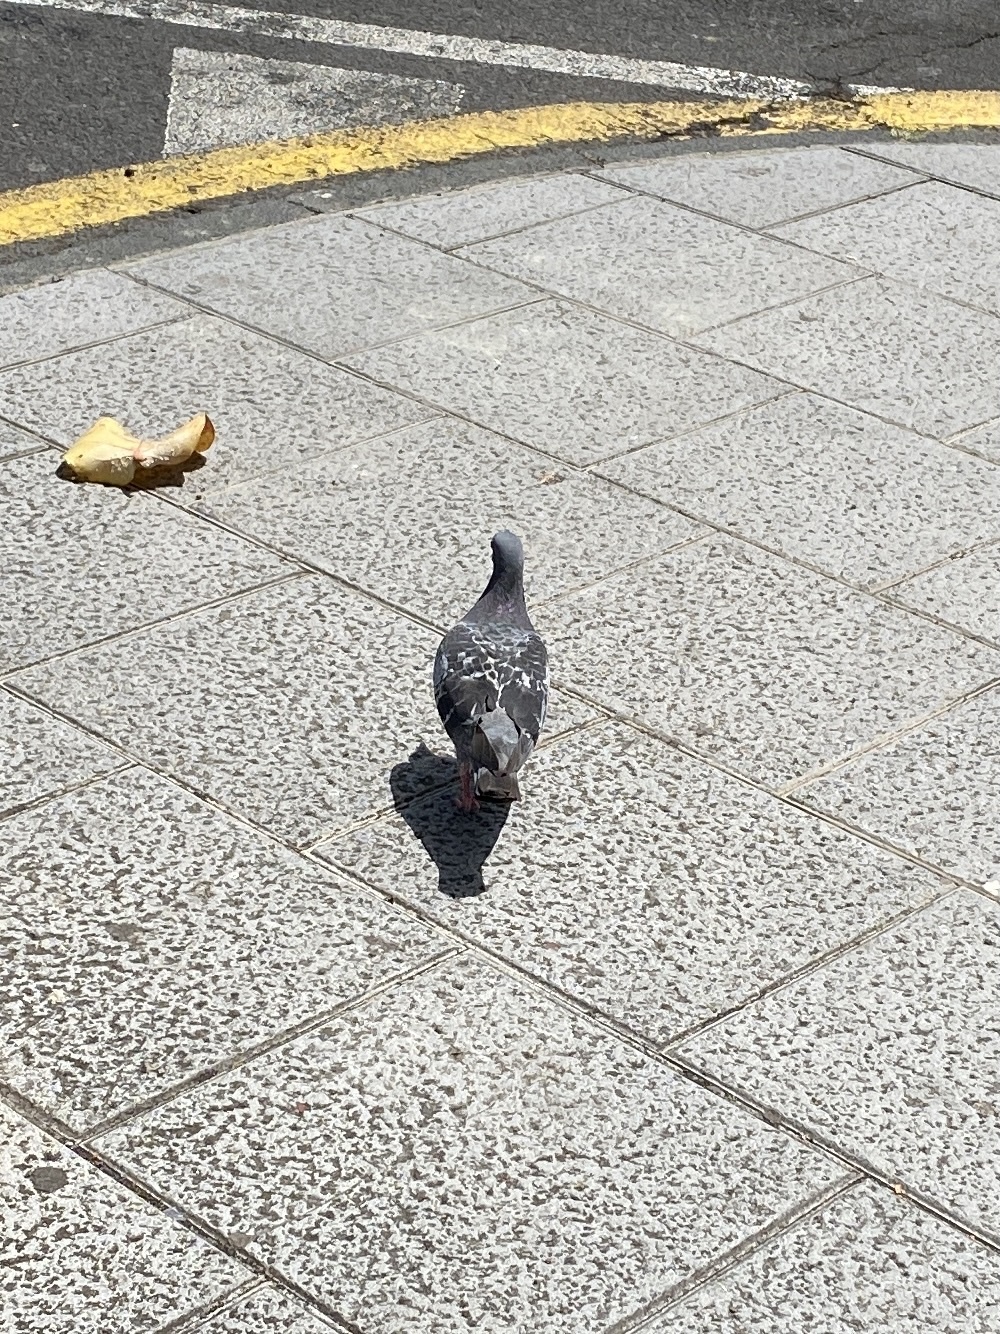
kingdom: Animalia
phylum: Chordata
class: Aves
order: Columbiformes
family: Columbidae
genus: Columba
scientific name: Columba livia
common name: Rock pigeon
